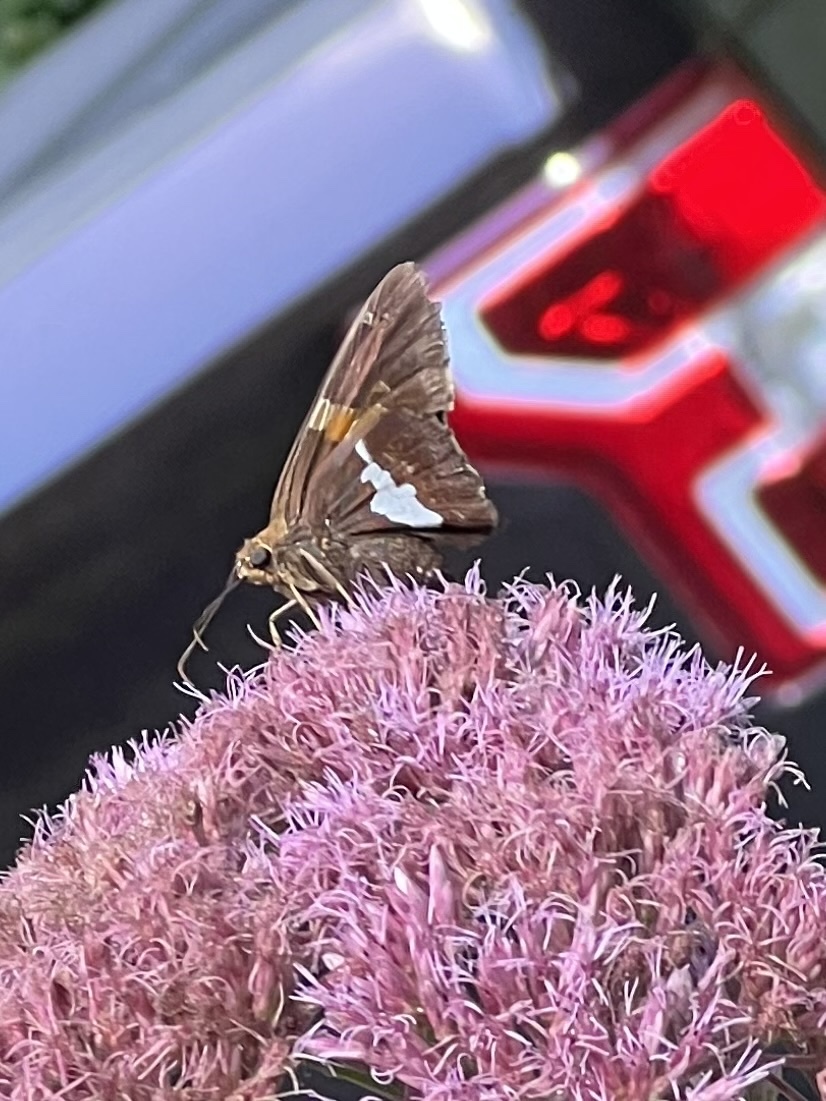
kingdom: Animalia
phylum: Arthropoda
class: Insecta
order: Lepidoptera
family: Hesperiidae
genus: Epargyreus
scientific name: Epargyreus clarus
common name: Silver-spotted skipper
